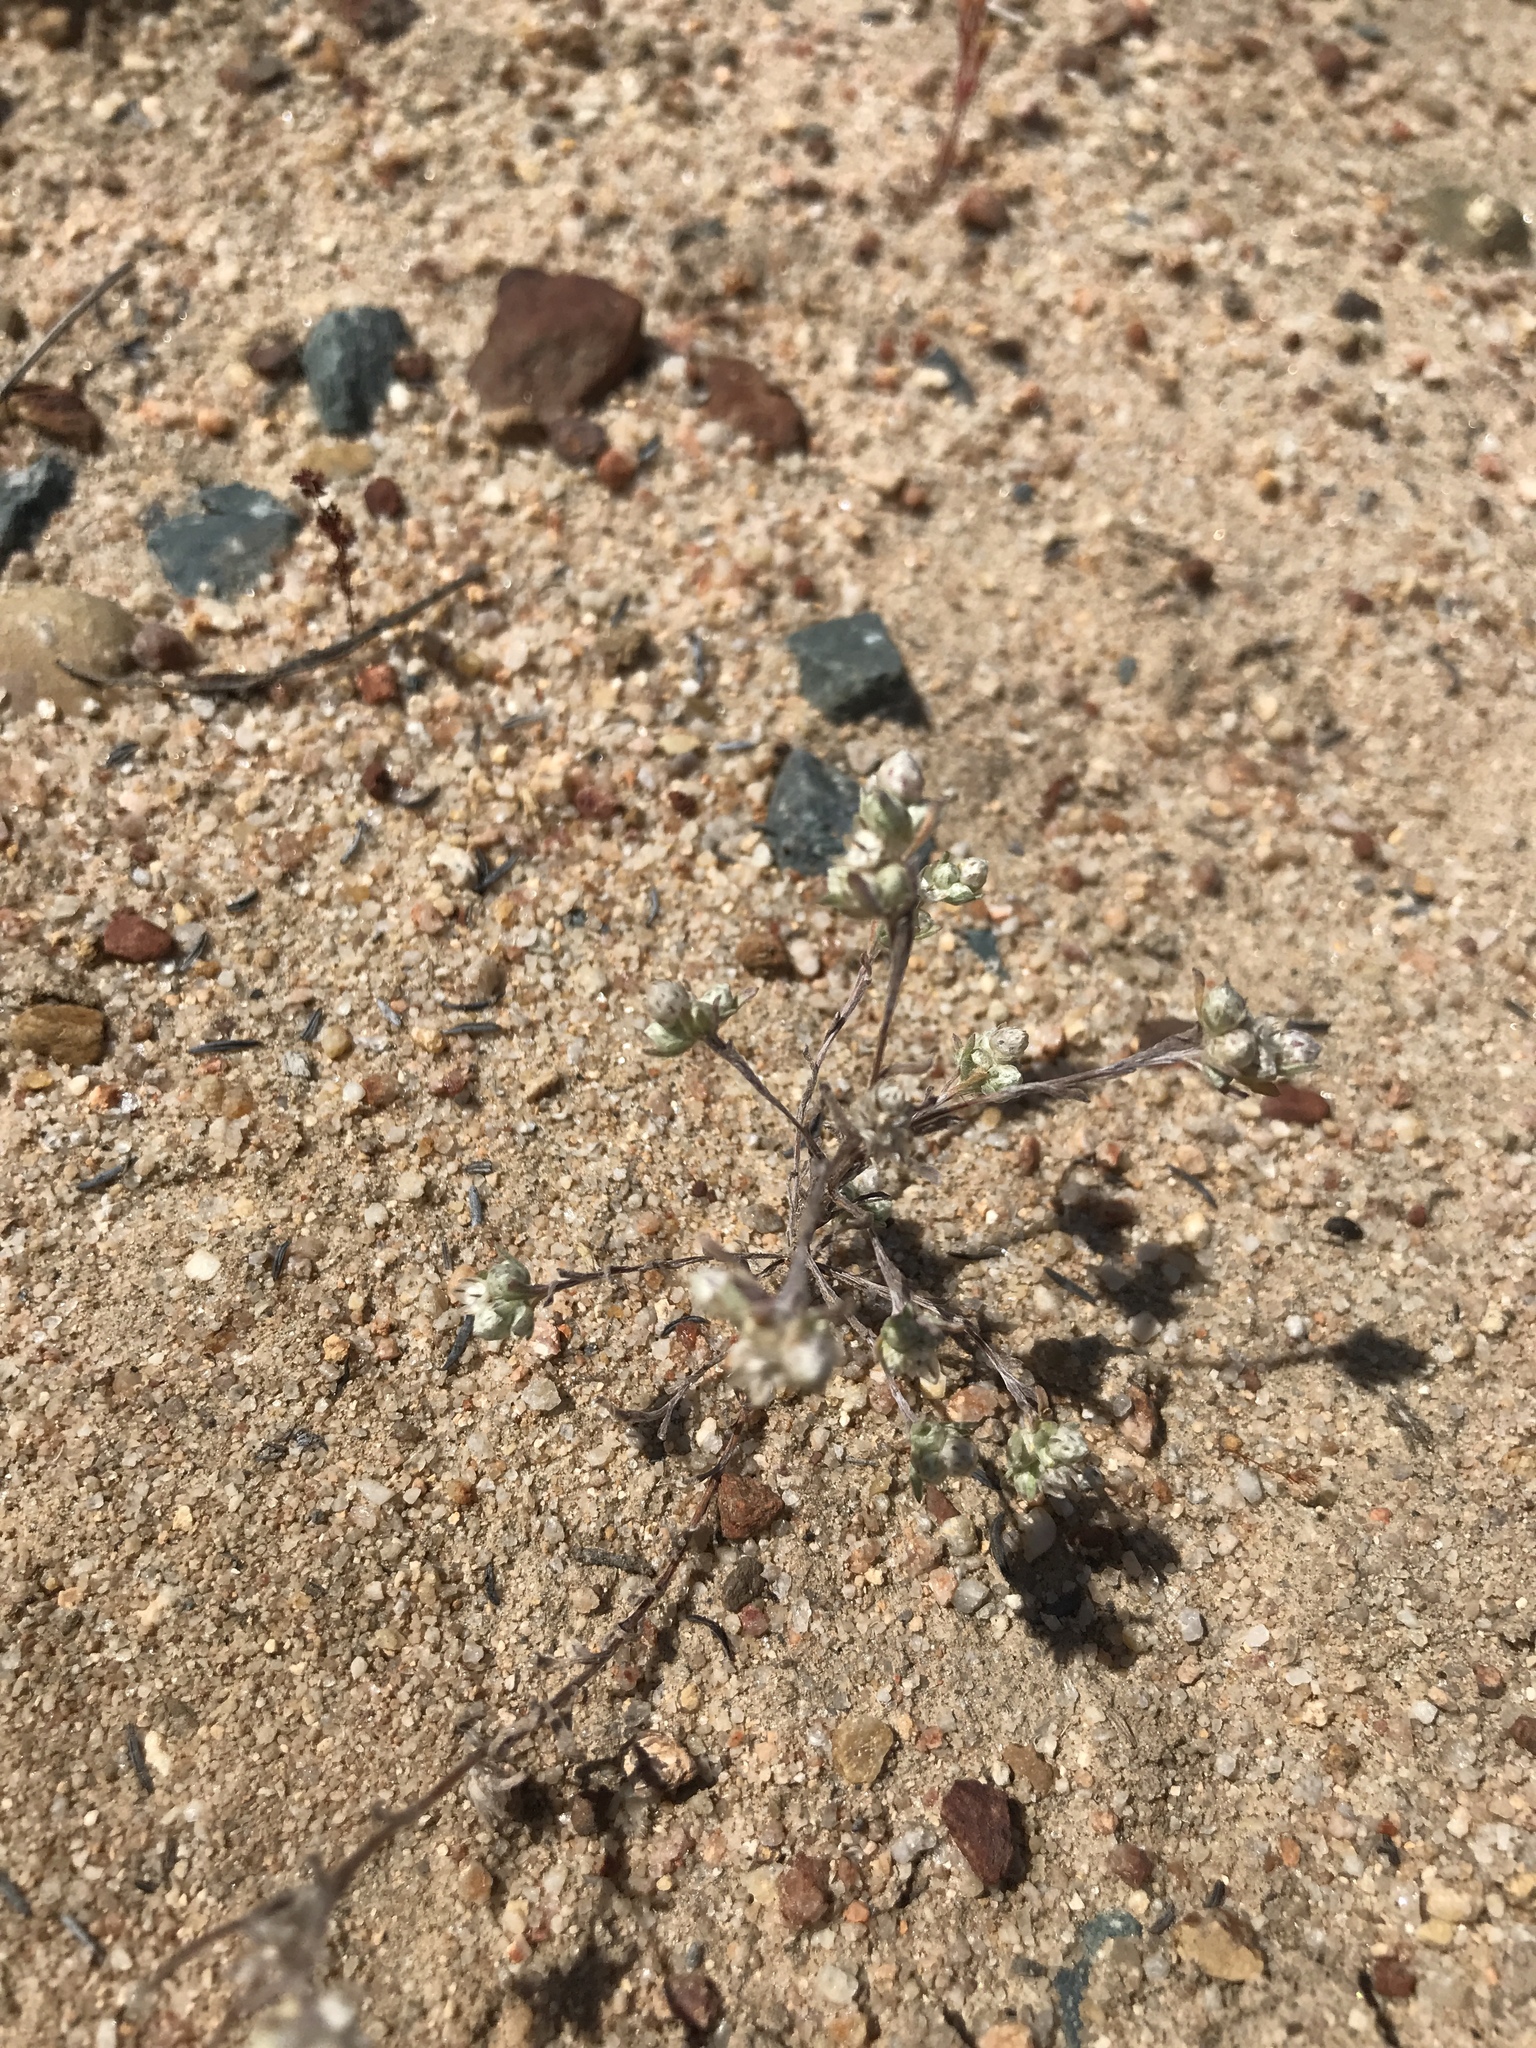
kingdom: Plantae
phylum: Tracheophyta
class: Magnoliopsida
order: Asterales
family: Asteraceae
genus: Stylocline
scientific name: Stylocline gnaphaloides
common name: Everlasting nest-straw
